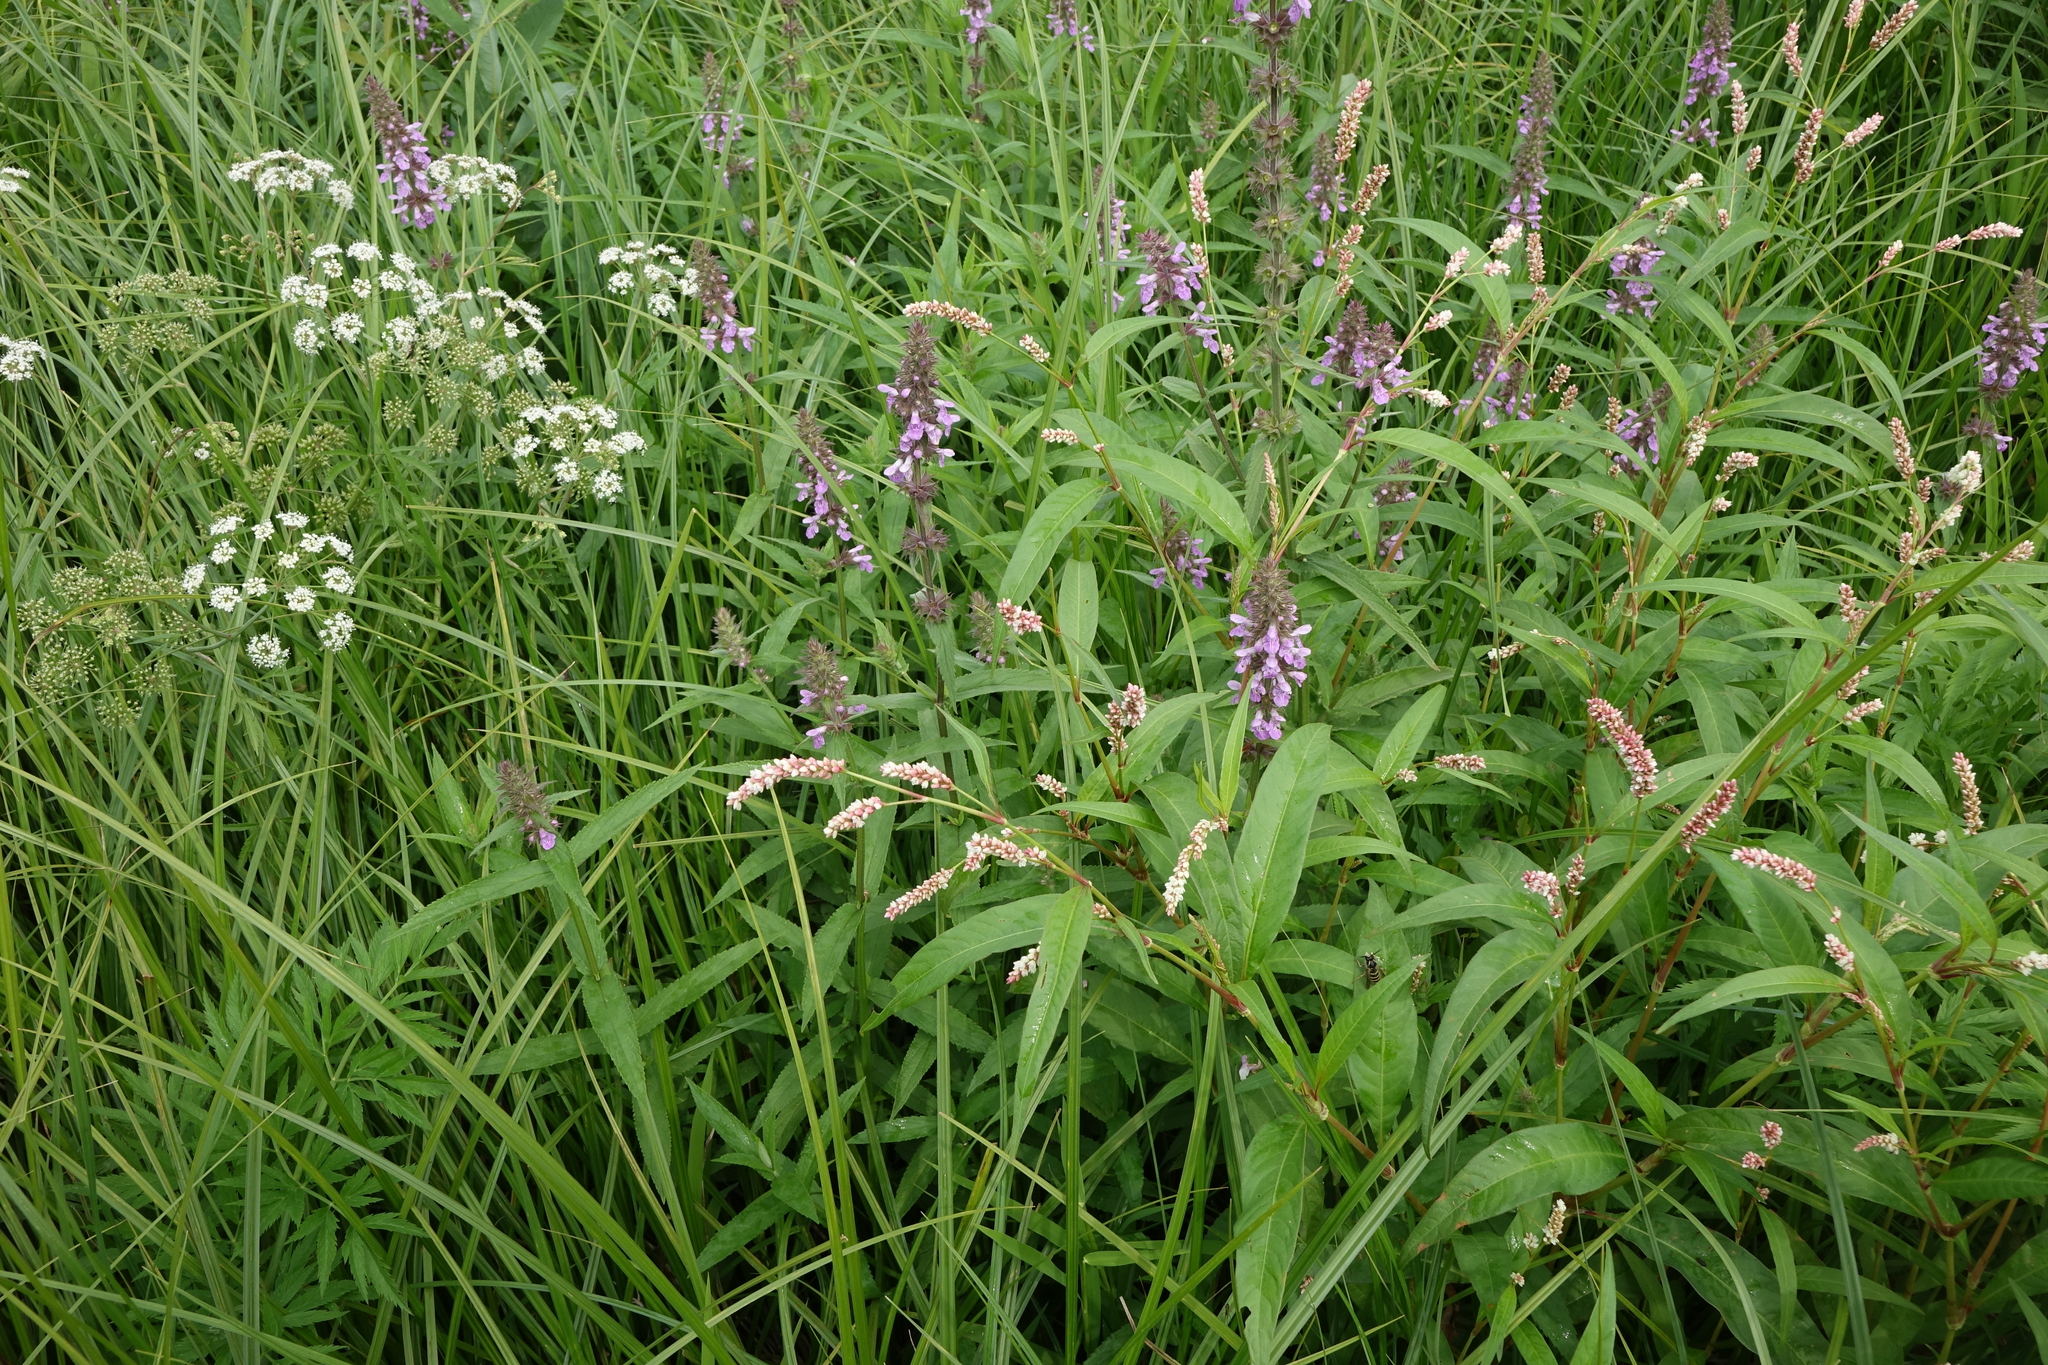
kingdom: Plantae
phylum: Tracheophyta
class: Magnoliopsida
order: Caryophyllales
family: Polygonaceae
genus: Persicaria
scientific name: Persicaria lapathifolia
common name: Curlytop knotweed
